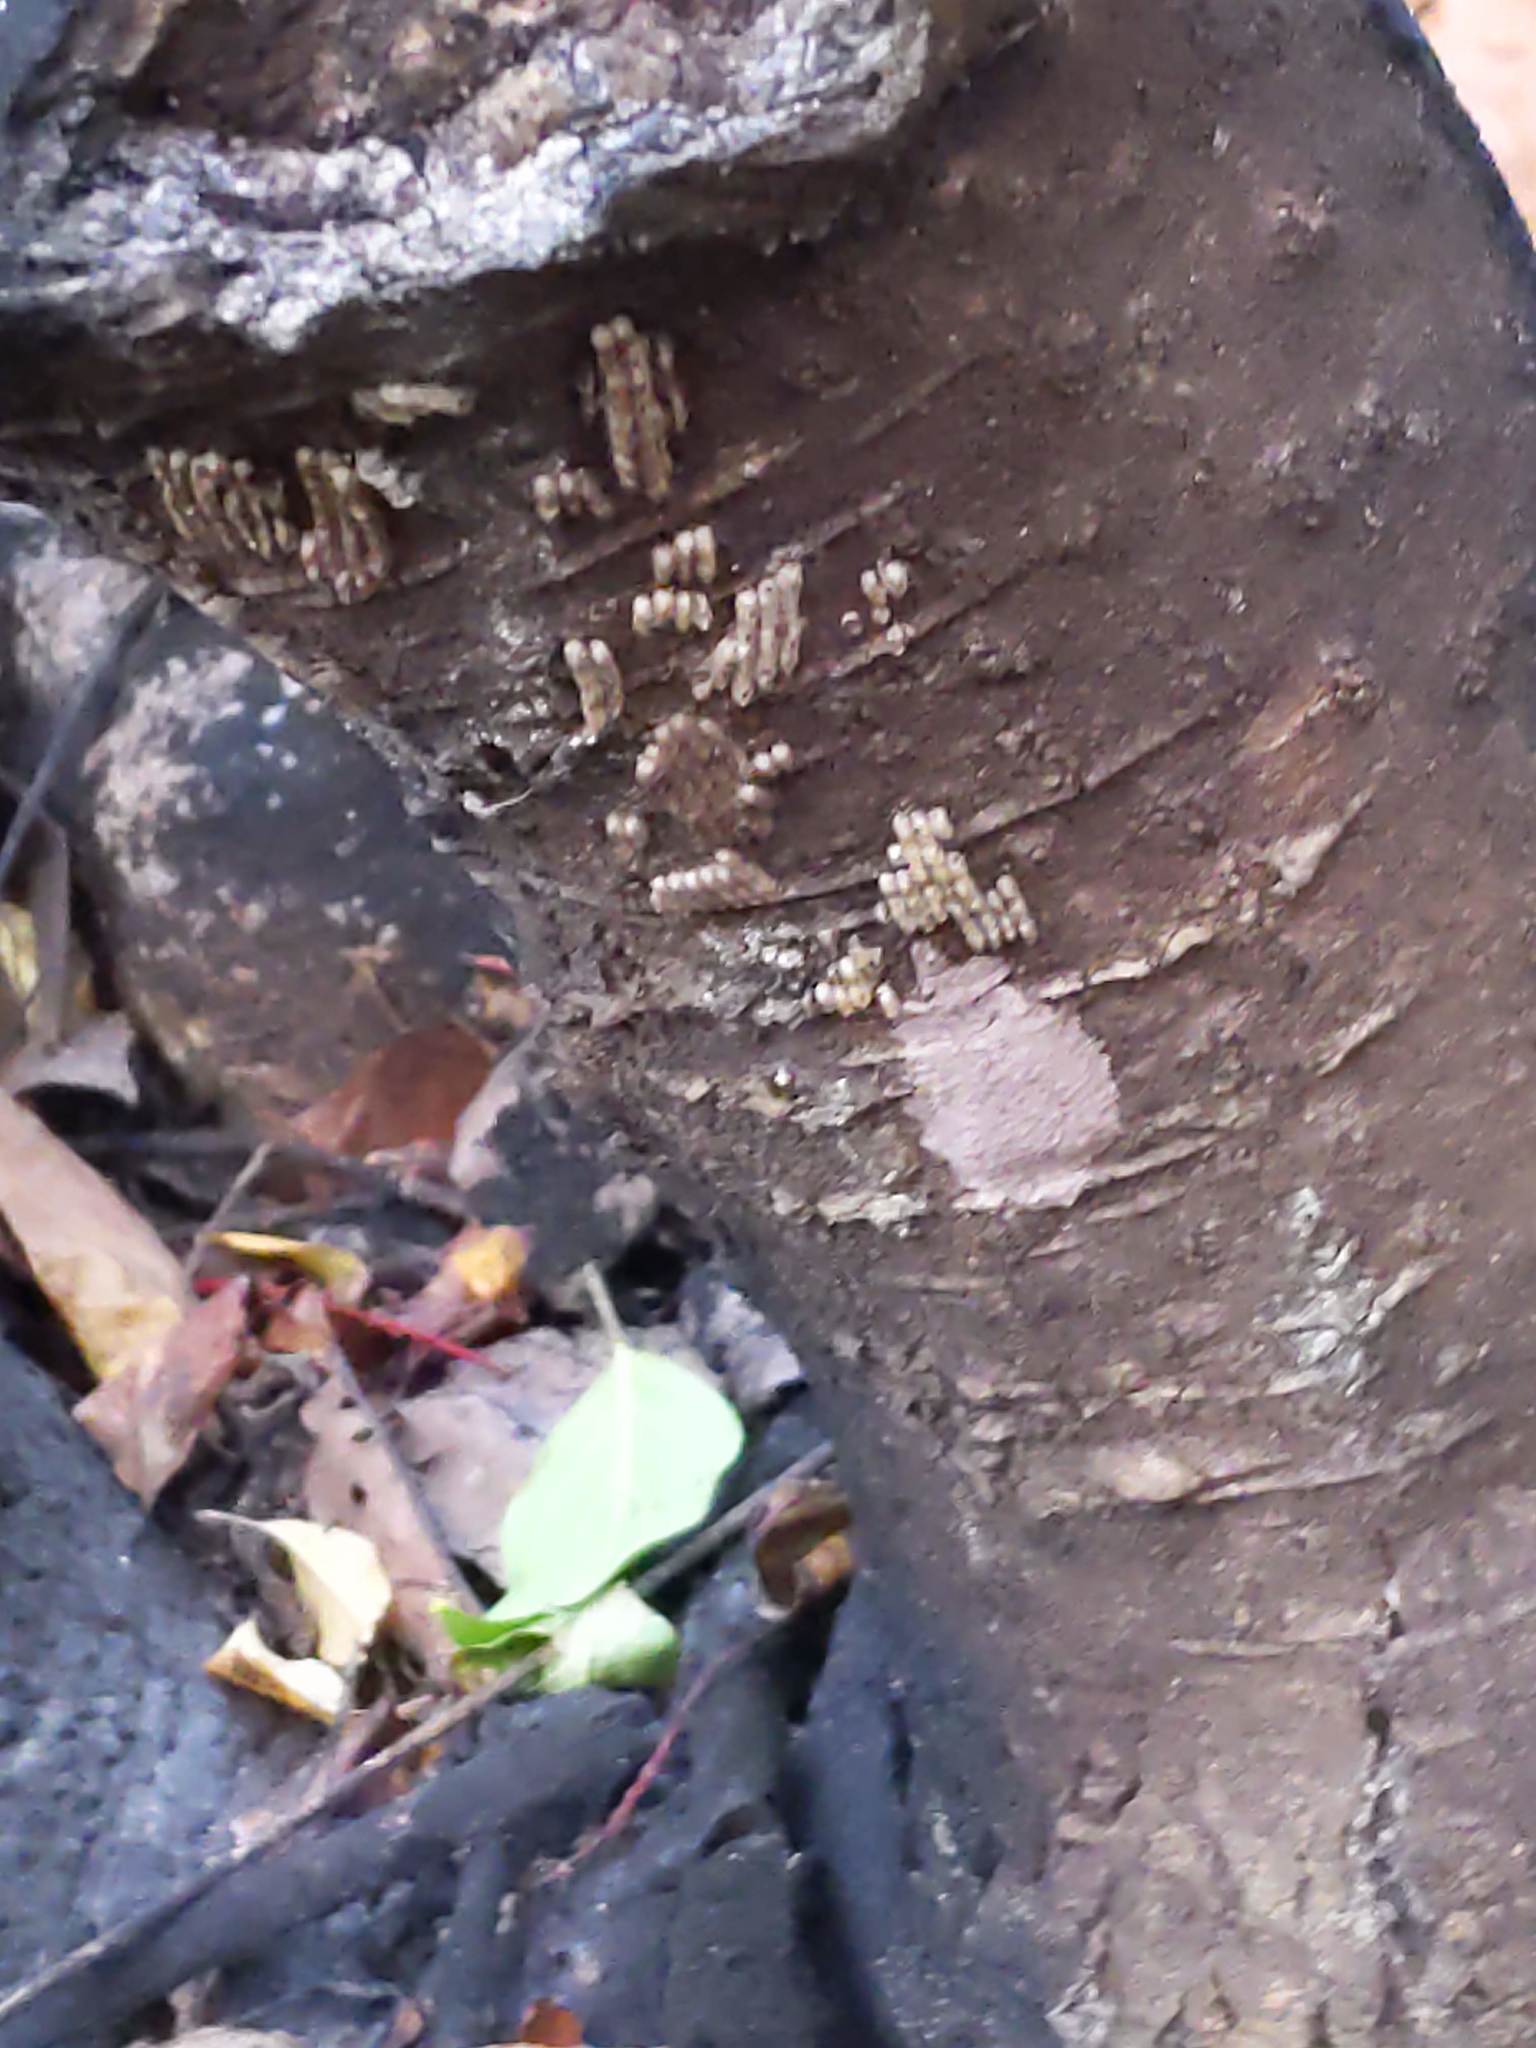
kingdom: Animalia
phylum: Arthropoda
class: Insecta
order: Hemiptera
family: Fulgoridae
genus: Lycorma
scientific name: Lycorma delicatula
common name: Spotted lanternfly
